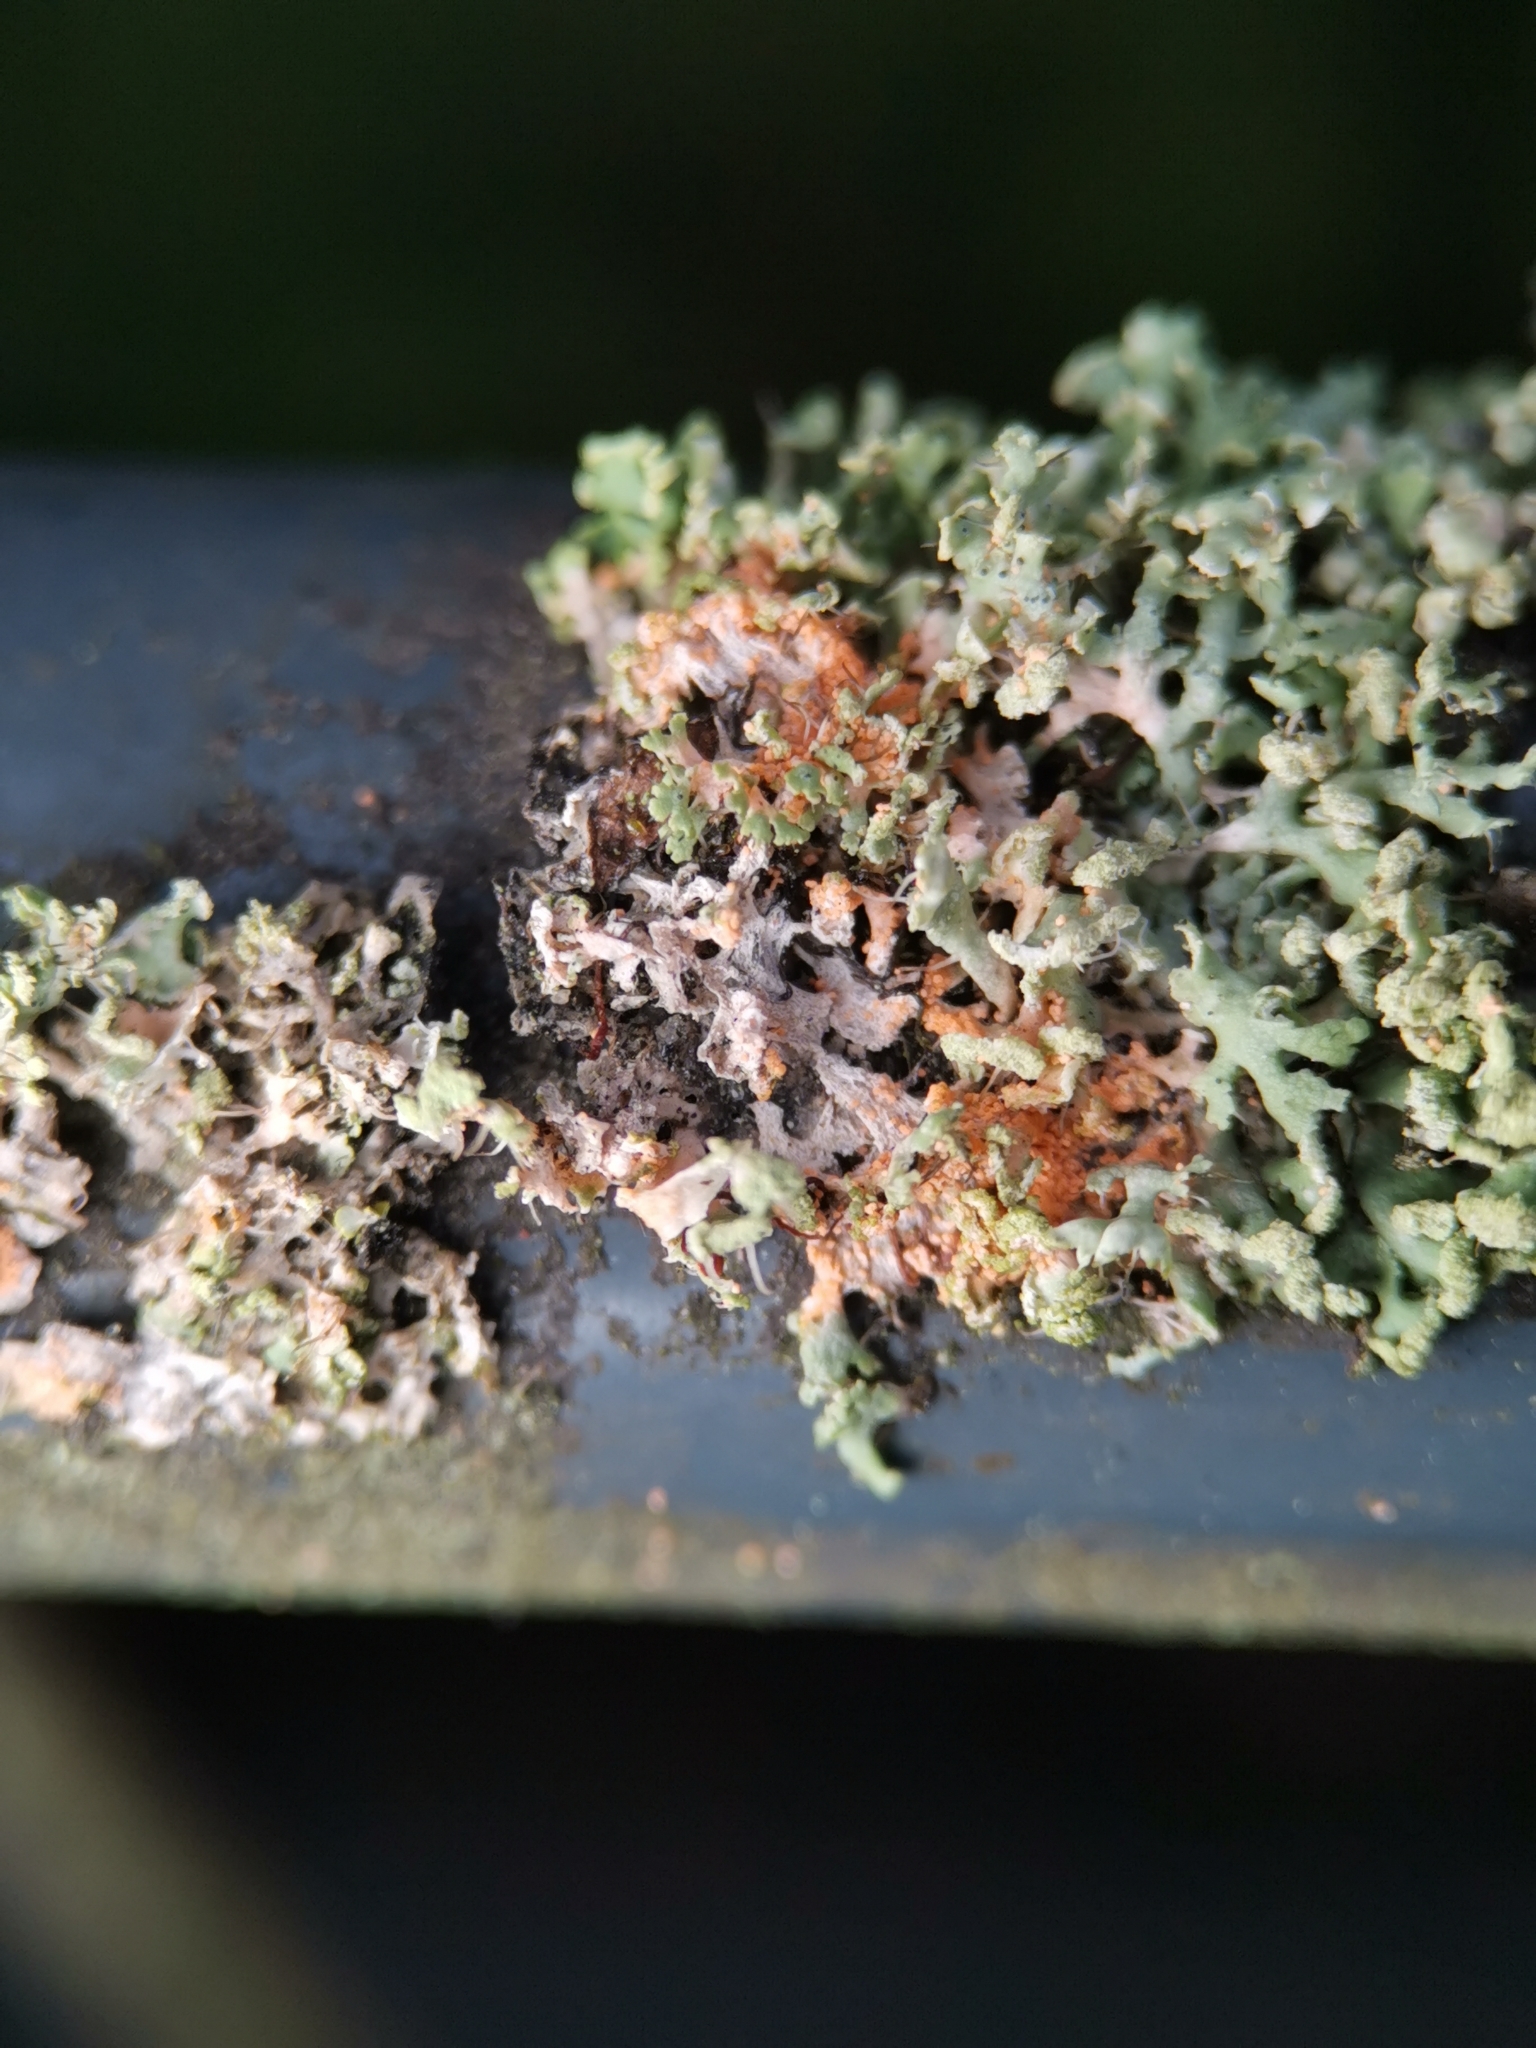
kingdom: Fungi
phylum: Basidiomycota
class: Agaricomycetes
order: Corticiales
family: Corticiaceae
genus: Erythricium
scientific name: Erythricium aurantiacum
